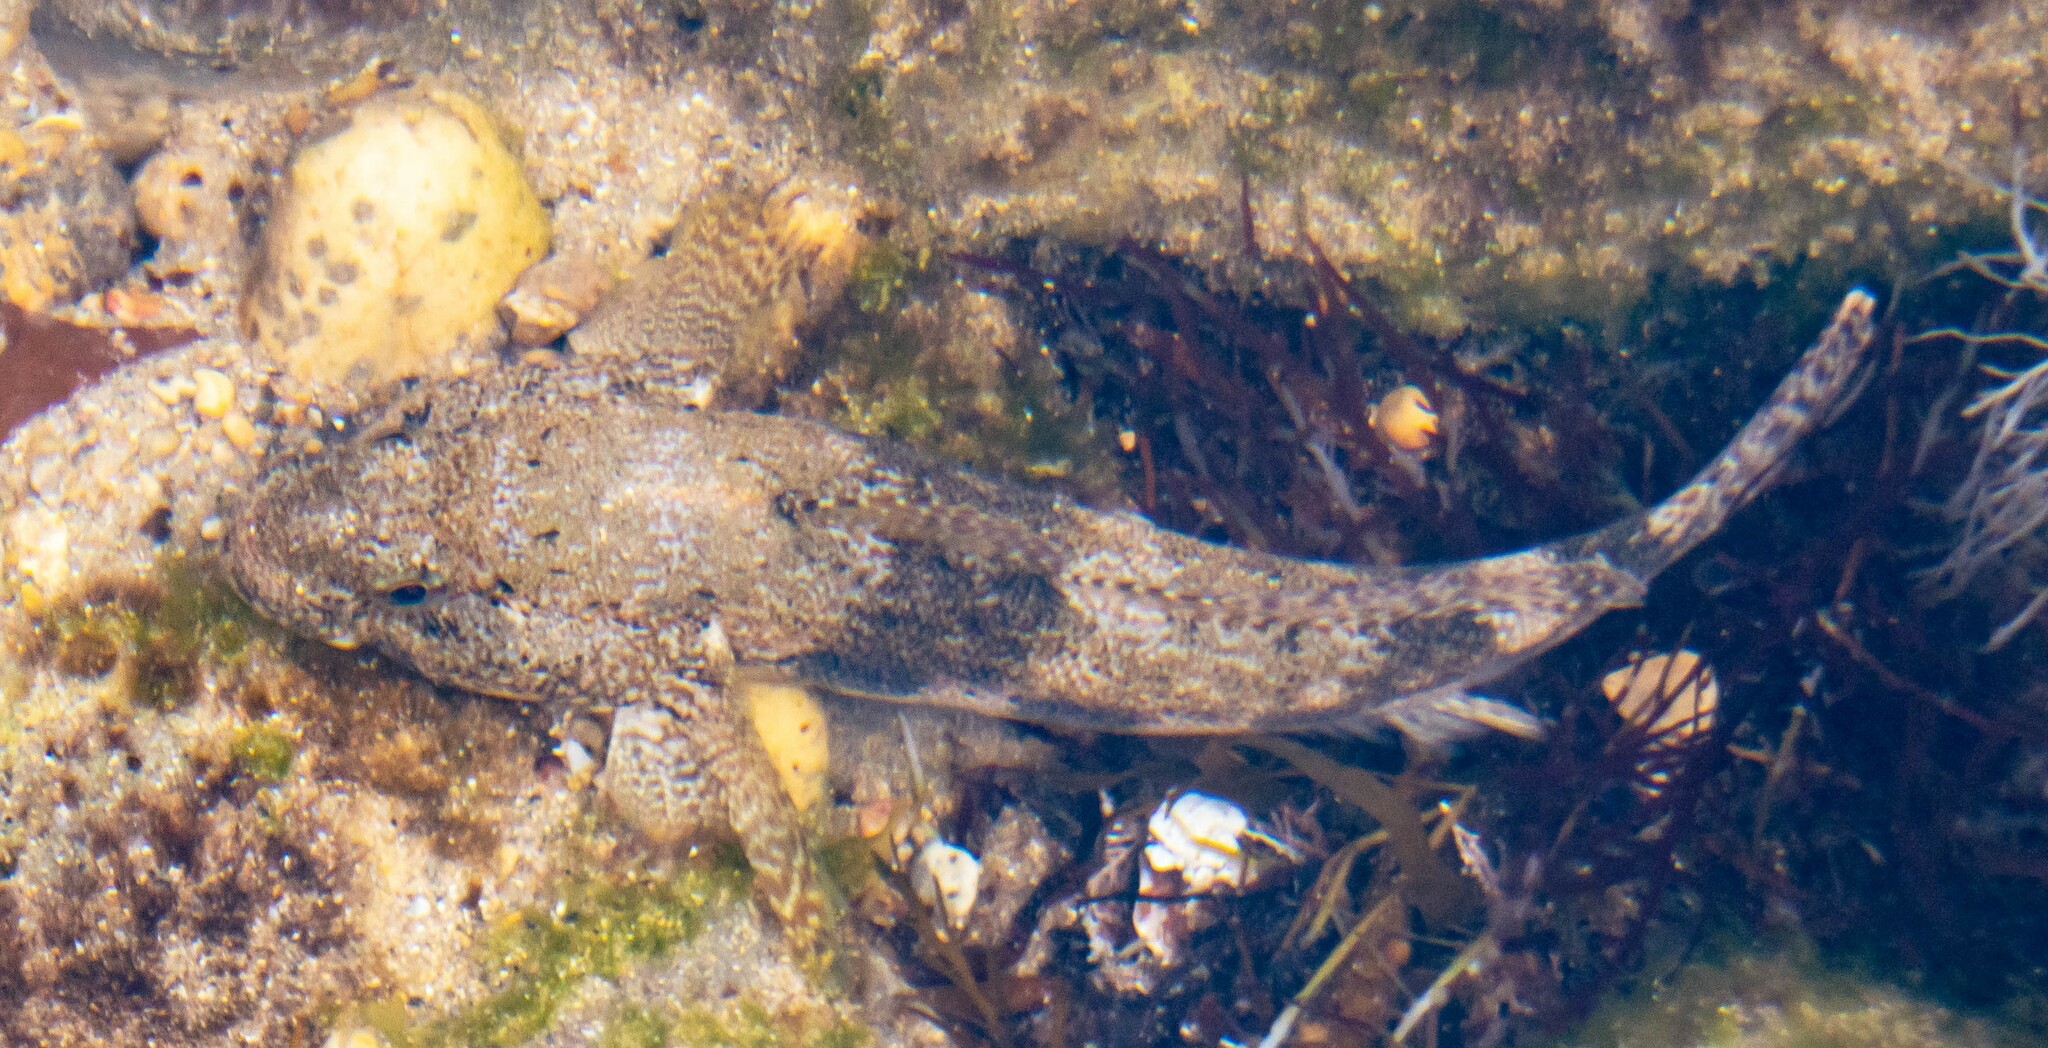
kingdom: Animalia
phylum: Chordata
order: Perciformes
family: Gobiidae
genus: Gobius
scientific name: Gobius cobitis
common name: Giant goby
